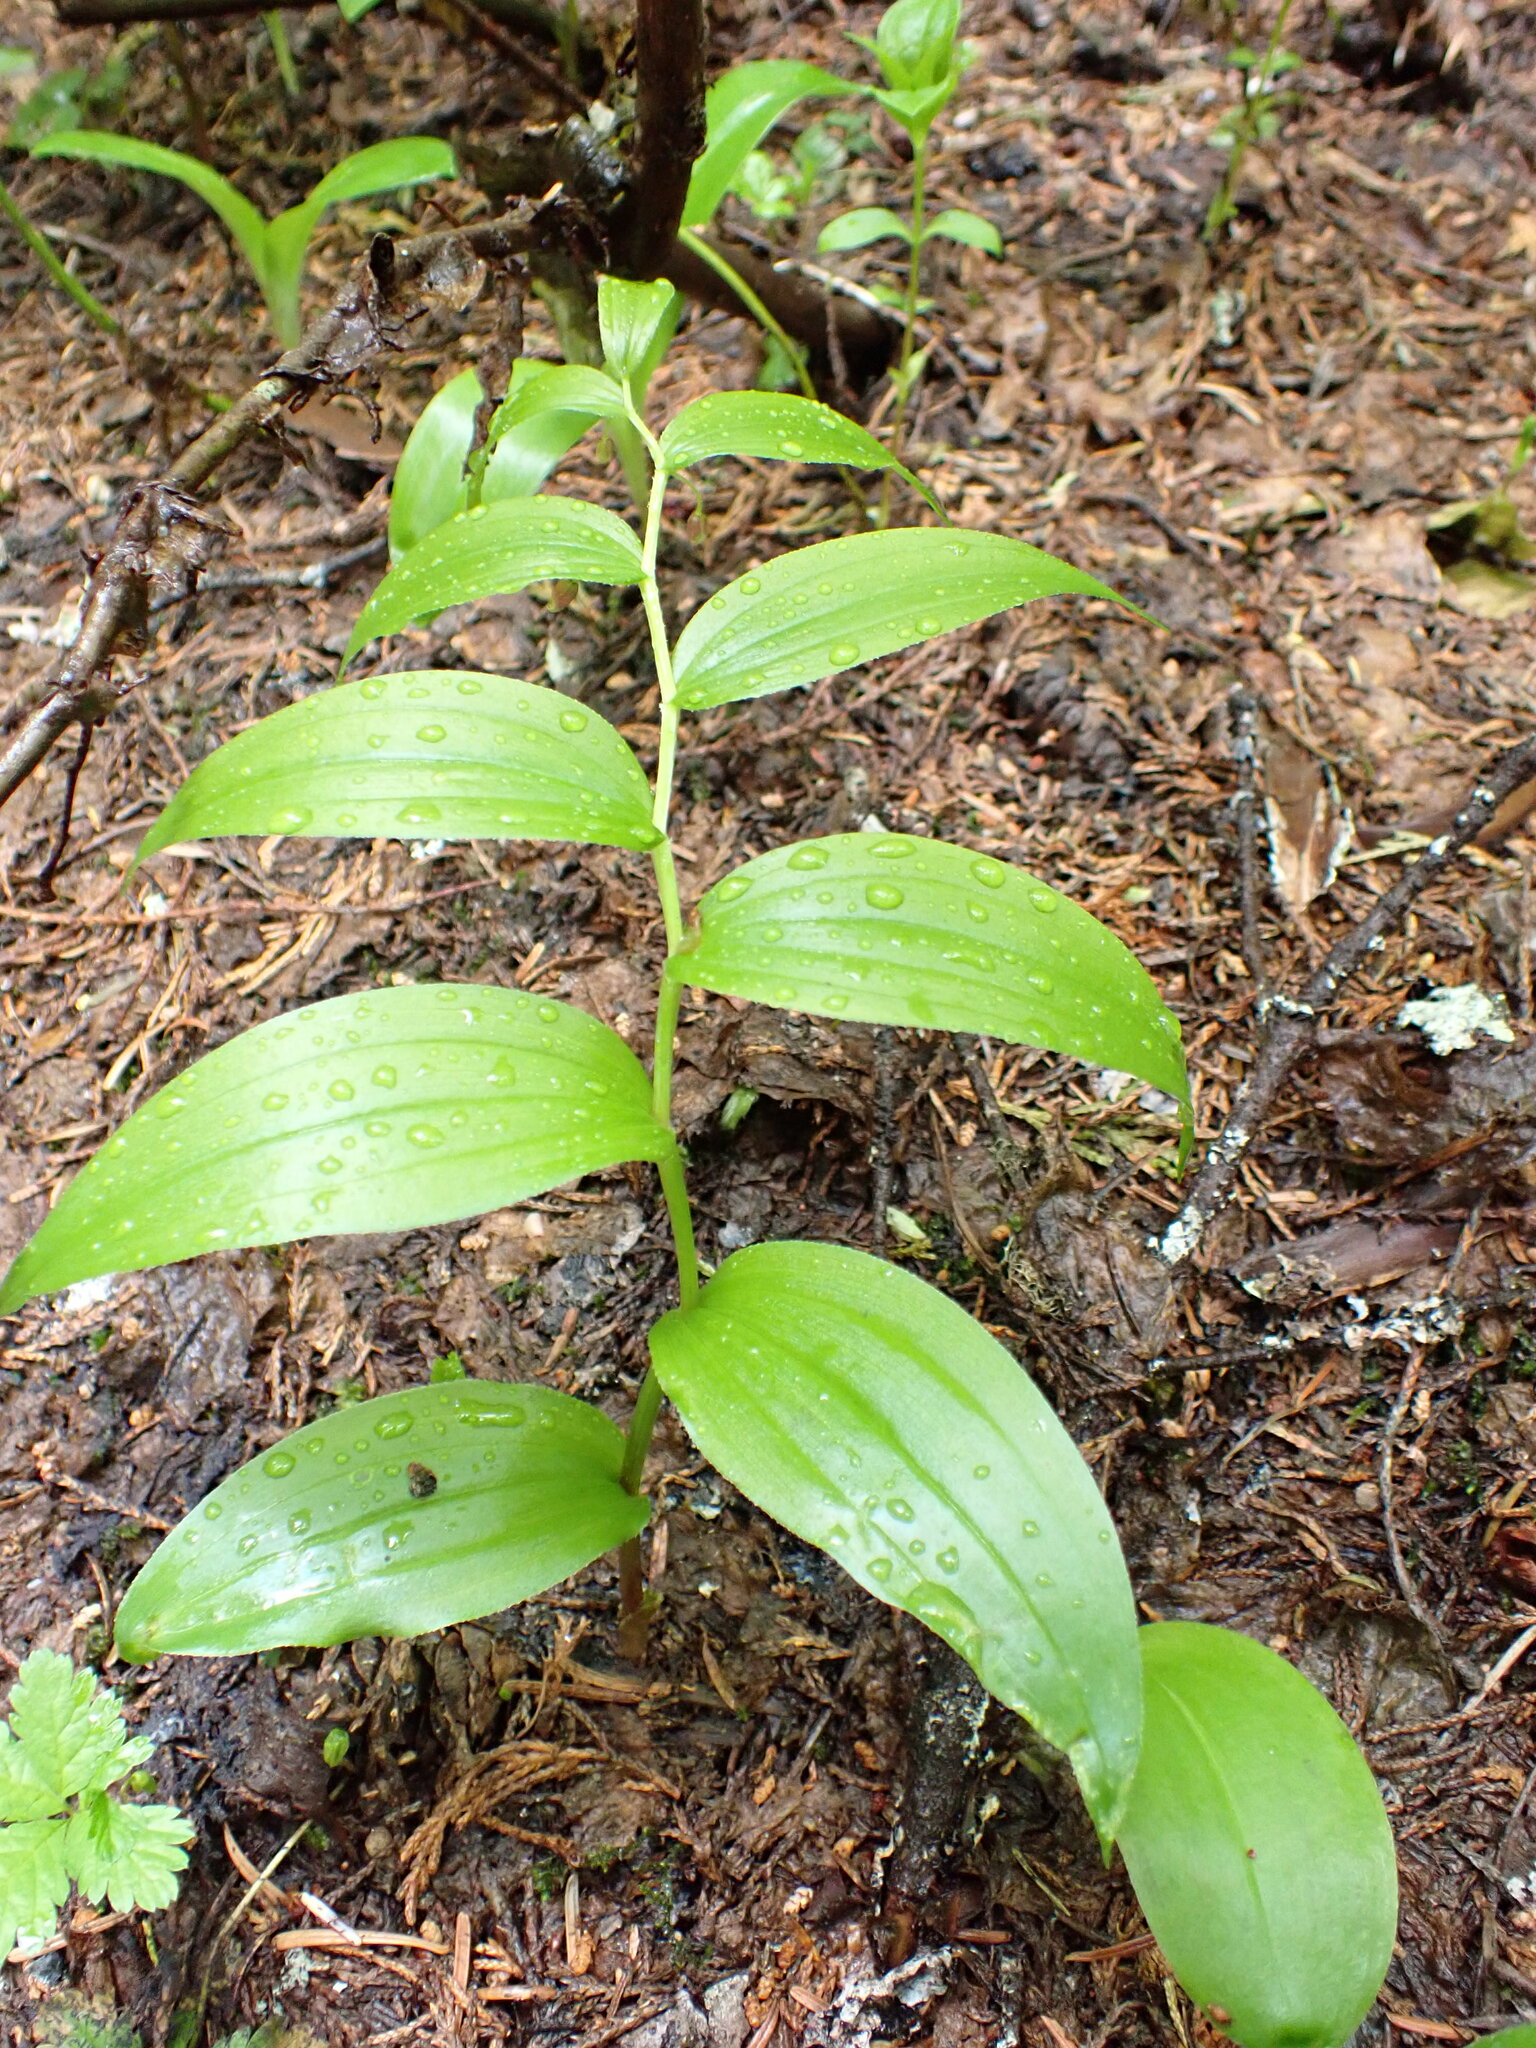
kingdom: Plantae
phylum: Tracheophyta
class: Liliopsida
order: Liliales
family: Liliaceae
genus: Streptopus
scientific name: Streptopus lanceolatus
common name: Rose mandarin
